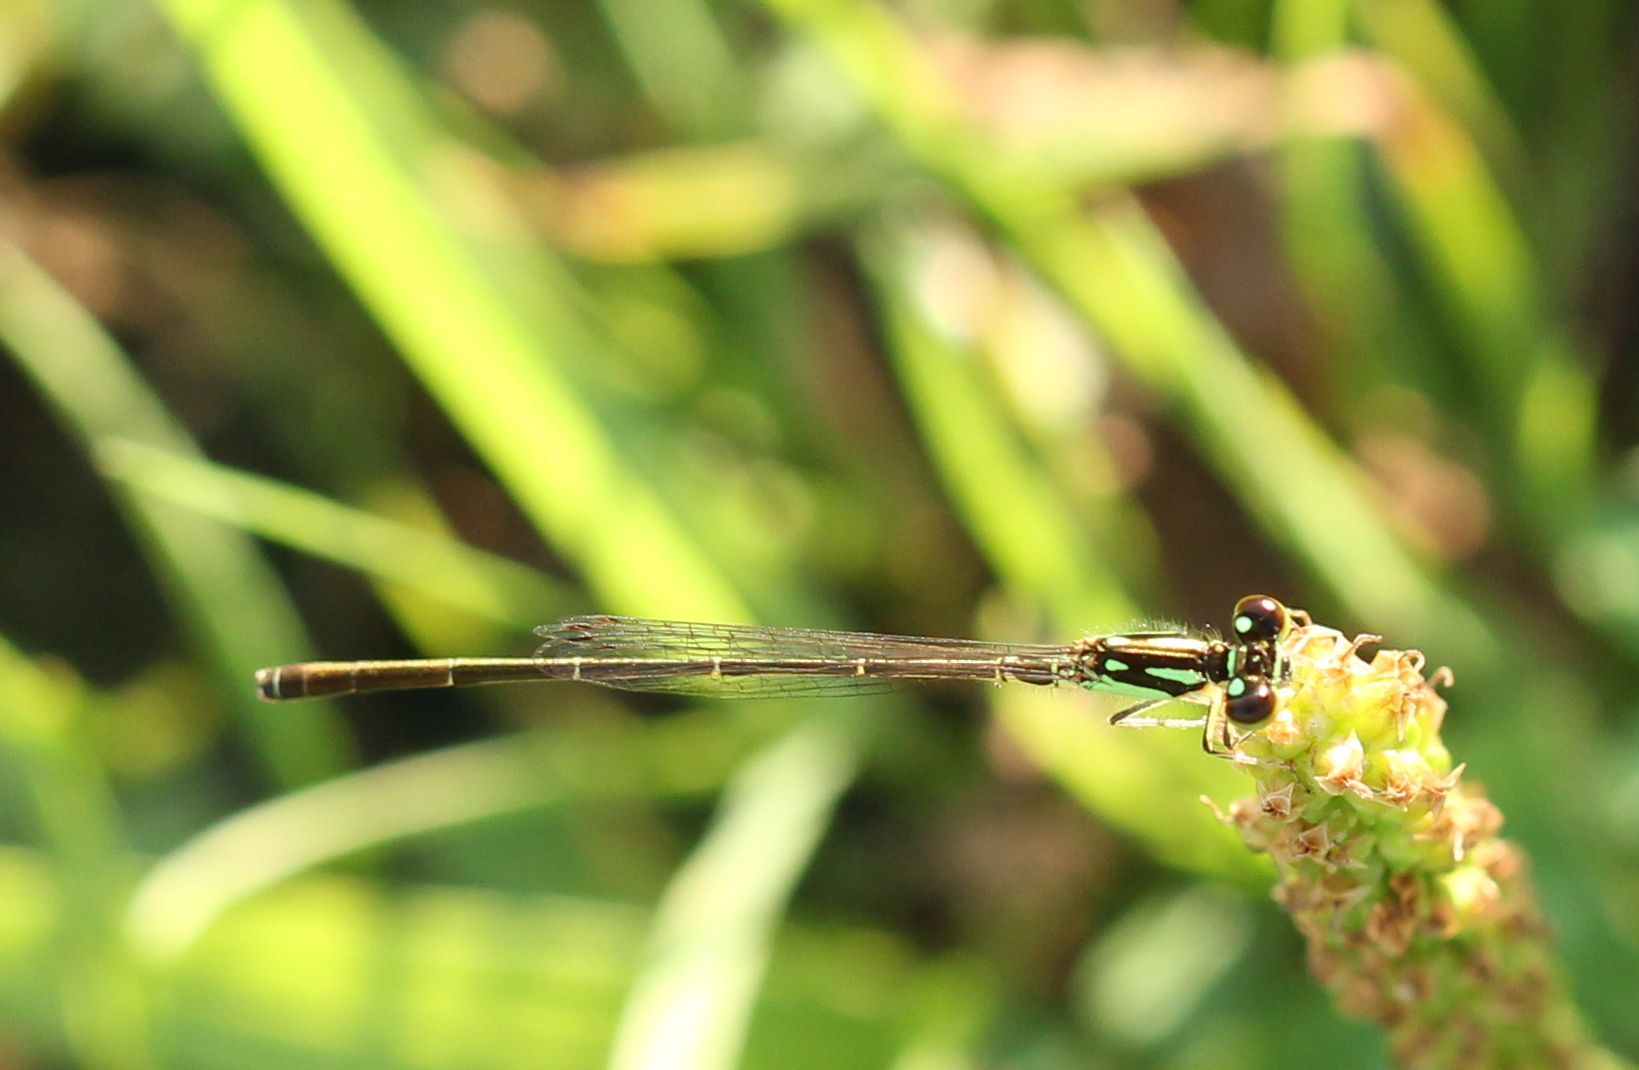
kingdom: Animalia
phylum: Arthropoda
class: Insecta
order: Odonata
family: Coenagrionidae
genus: Ischnura
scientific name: Ischnura posita
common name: Fragile forktail
